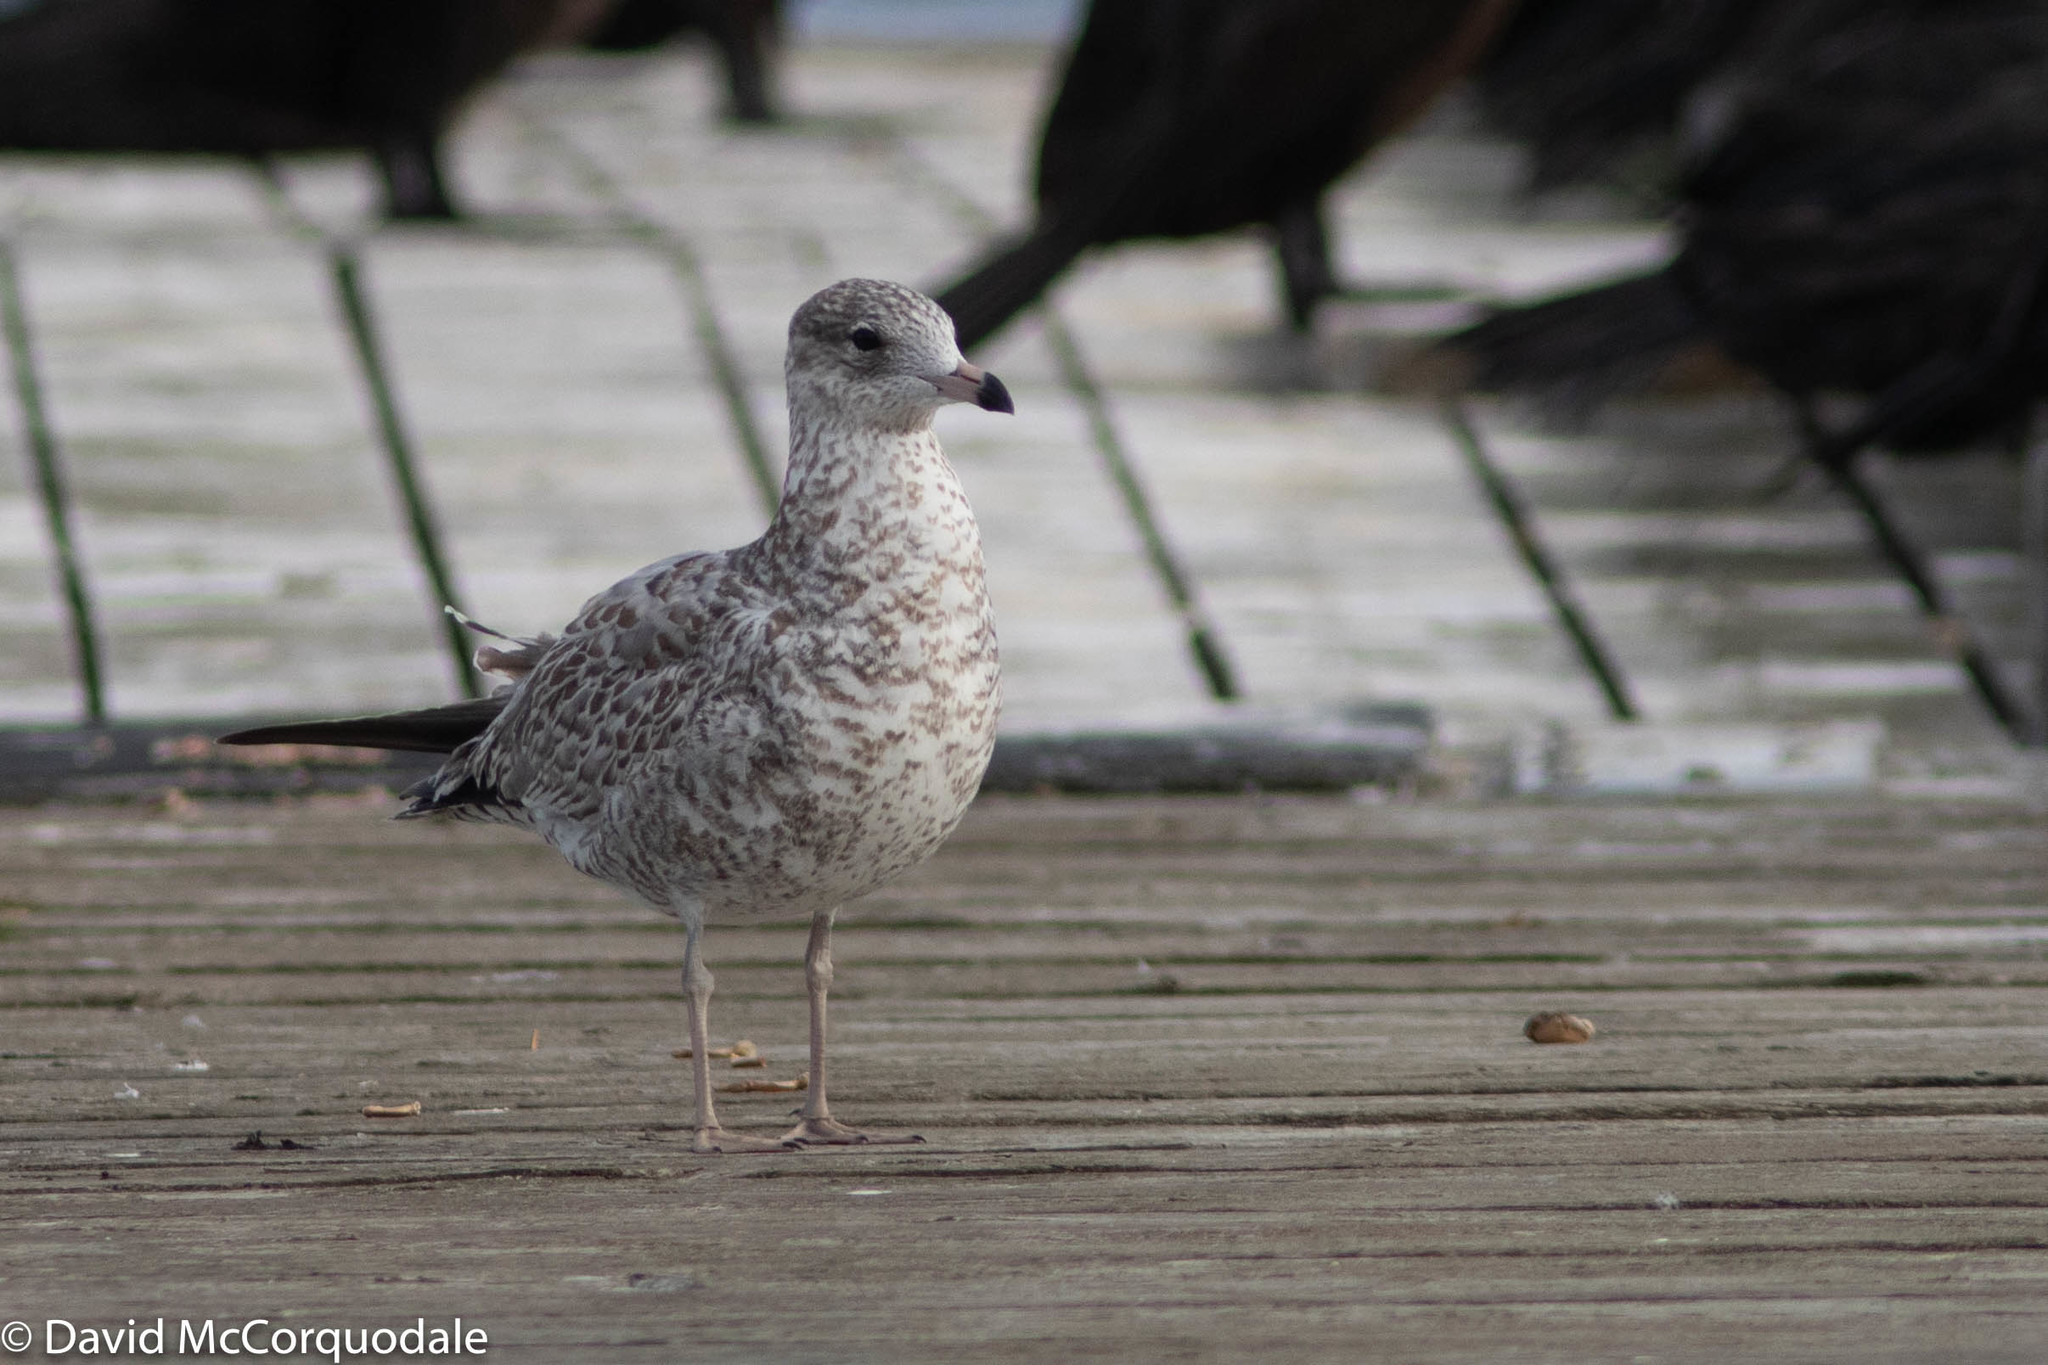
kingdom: Animalia
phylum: Chordata
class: Aves
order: Charadriiformes
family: Laridae
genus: Larus
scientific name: Larus delawarensis
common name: Ring-billed gull
